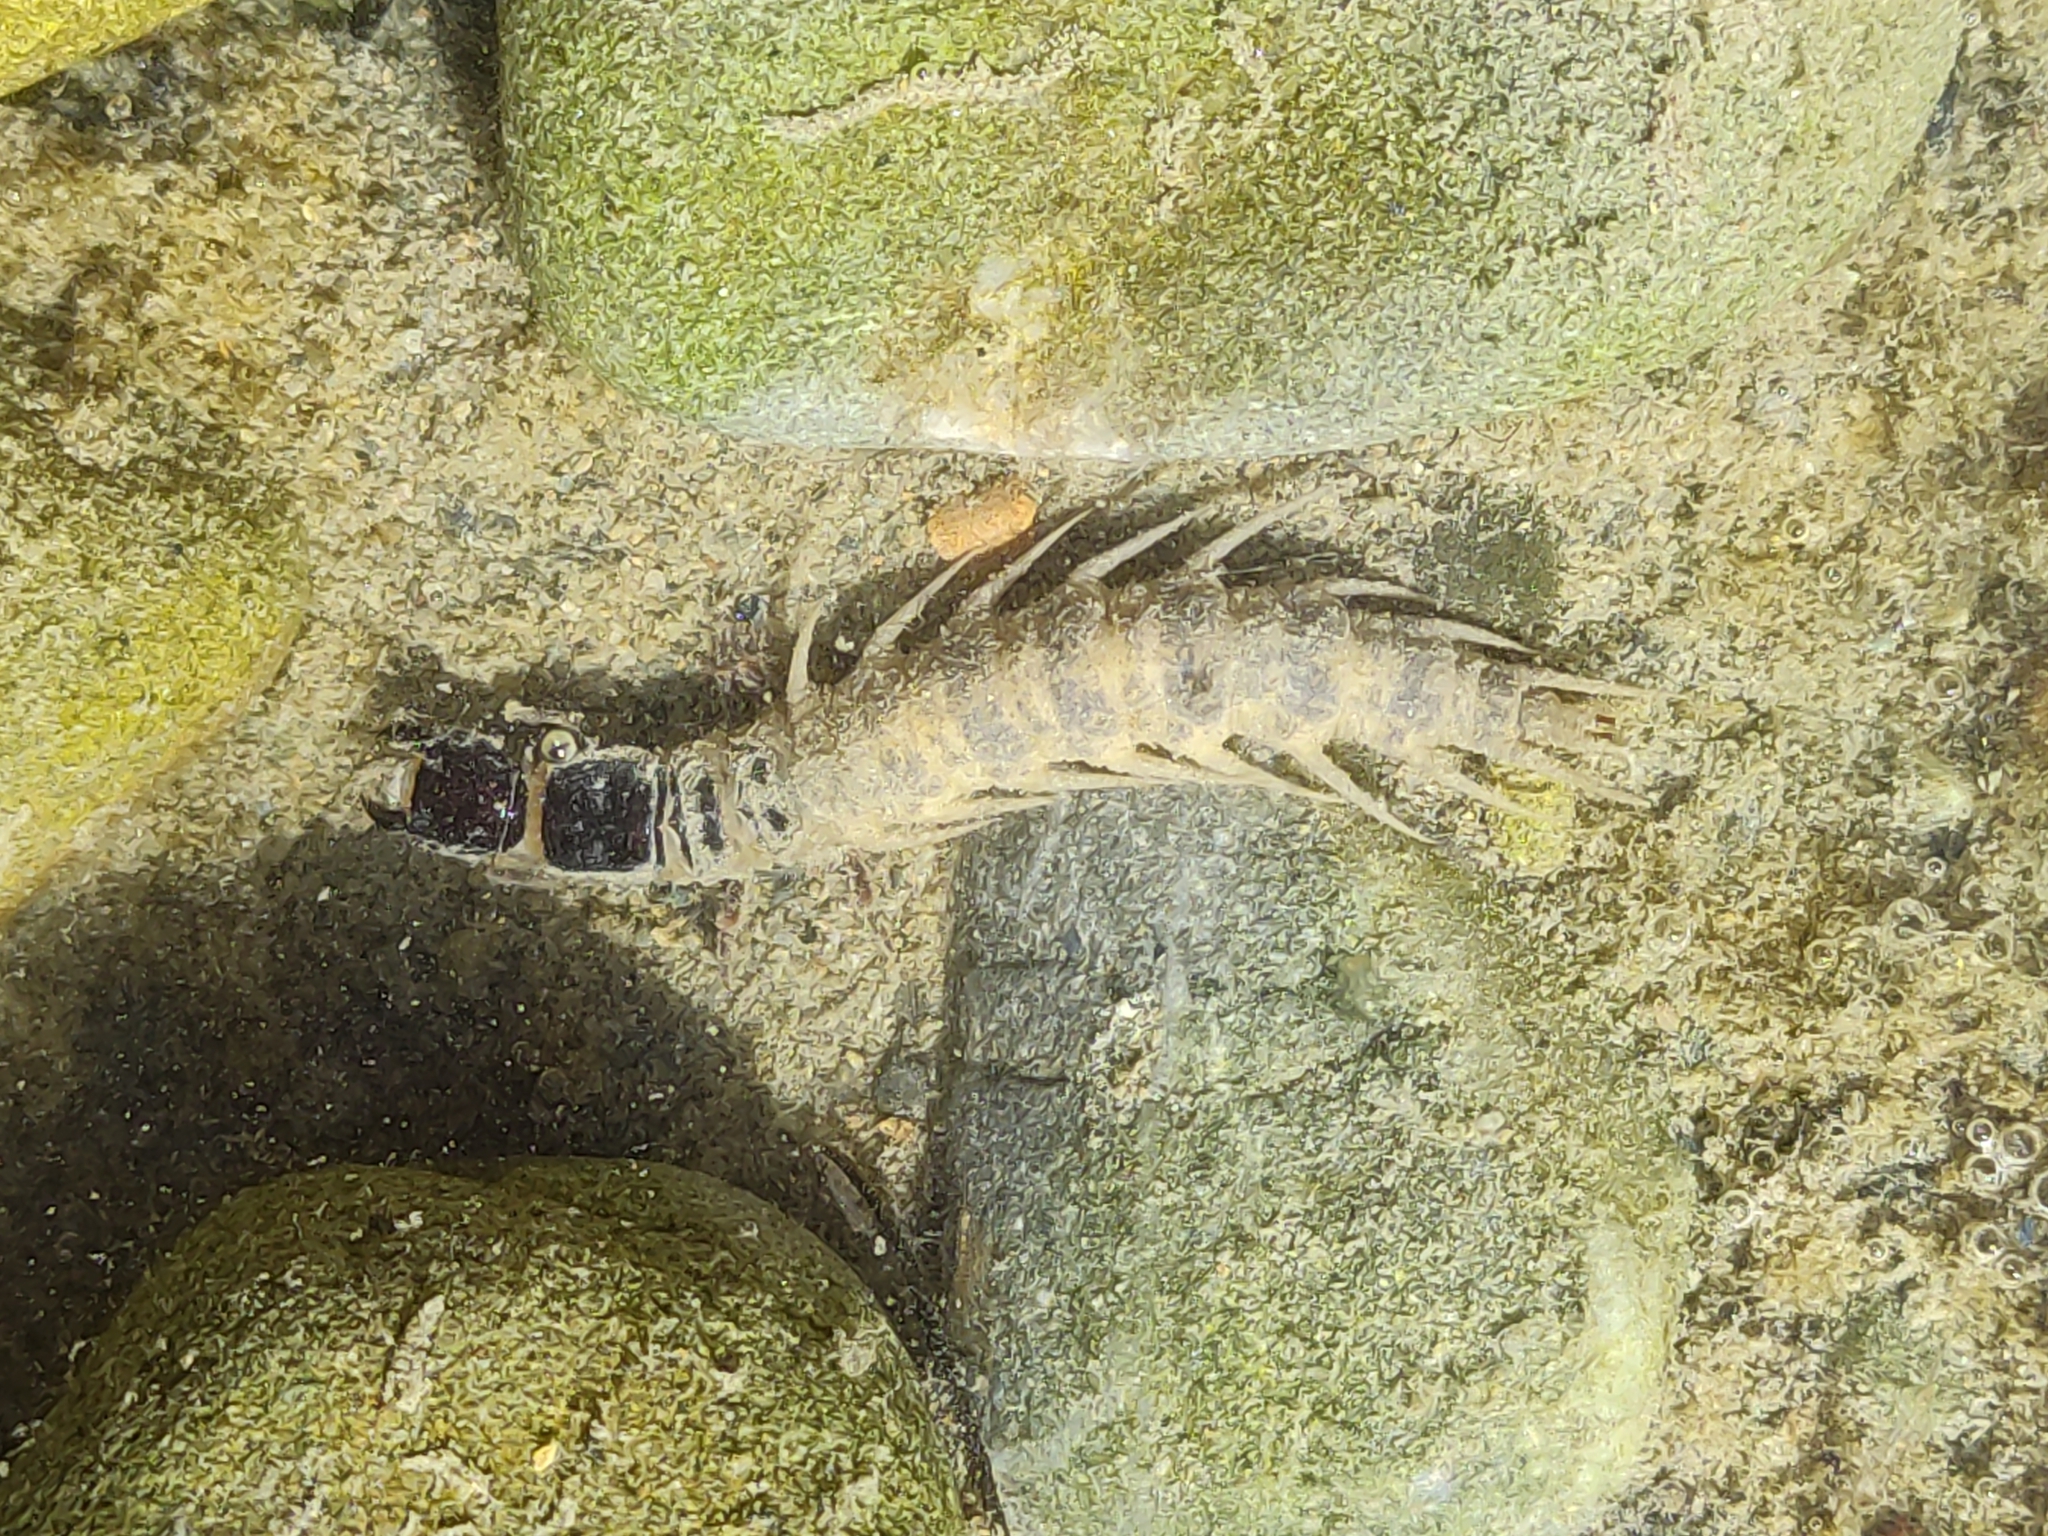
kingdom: Animalia
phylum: Arthropoda
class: Insecta
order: Megaloptera
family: Corydalidae
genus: Archichauliodes
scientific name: Archichauliodes diversus
